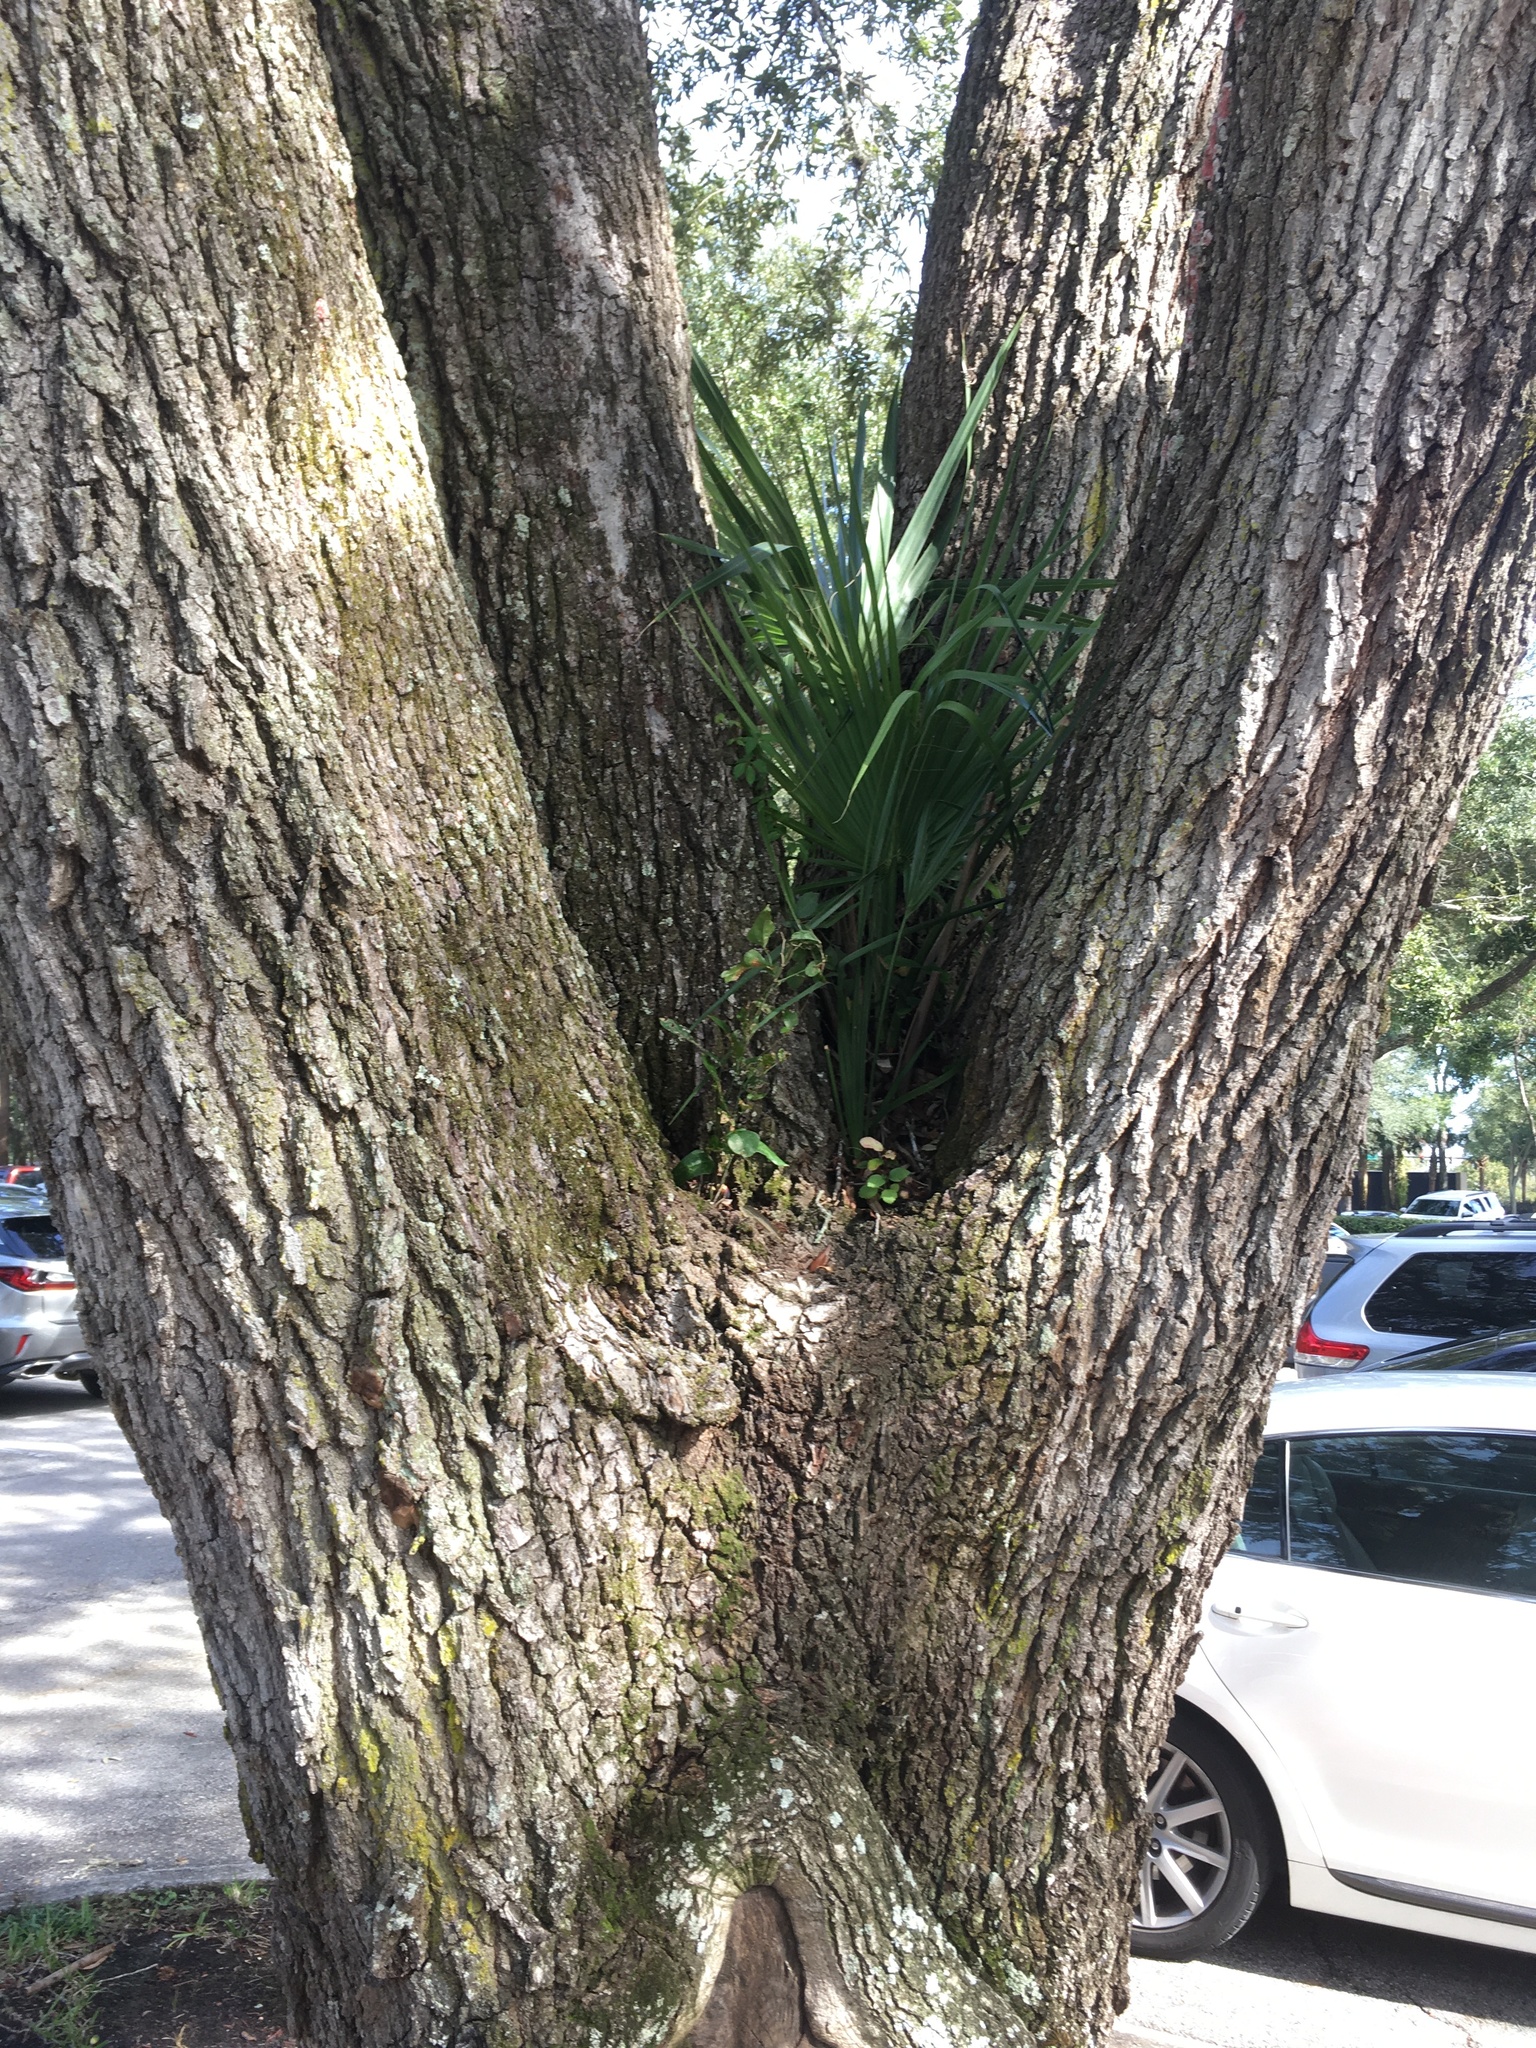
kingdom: Plantae
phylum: Tracheophyta
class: Liliopsida
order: Arecales
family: Arecaceae
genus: Sabal
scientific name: Sabal palmetto
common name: Blue palmetto
